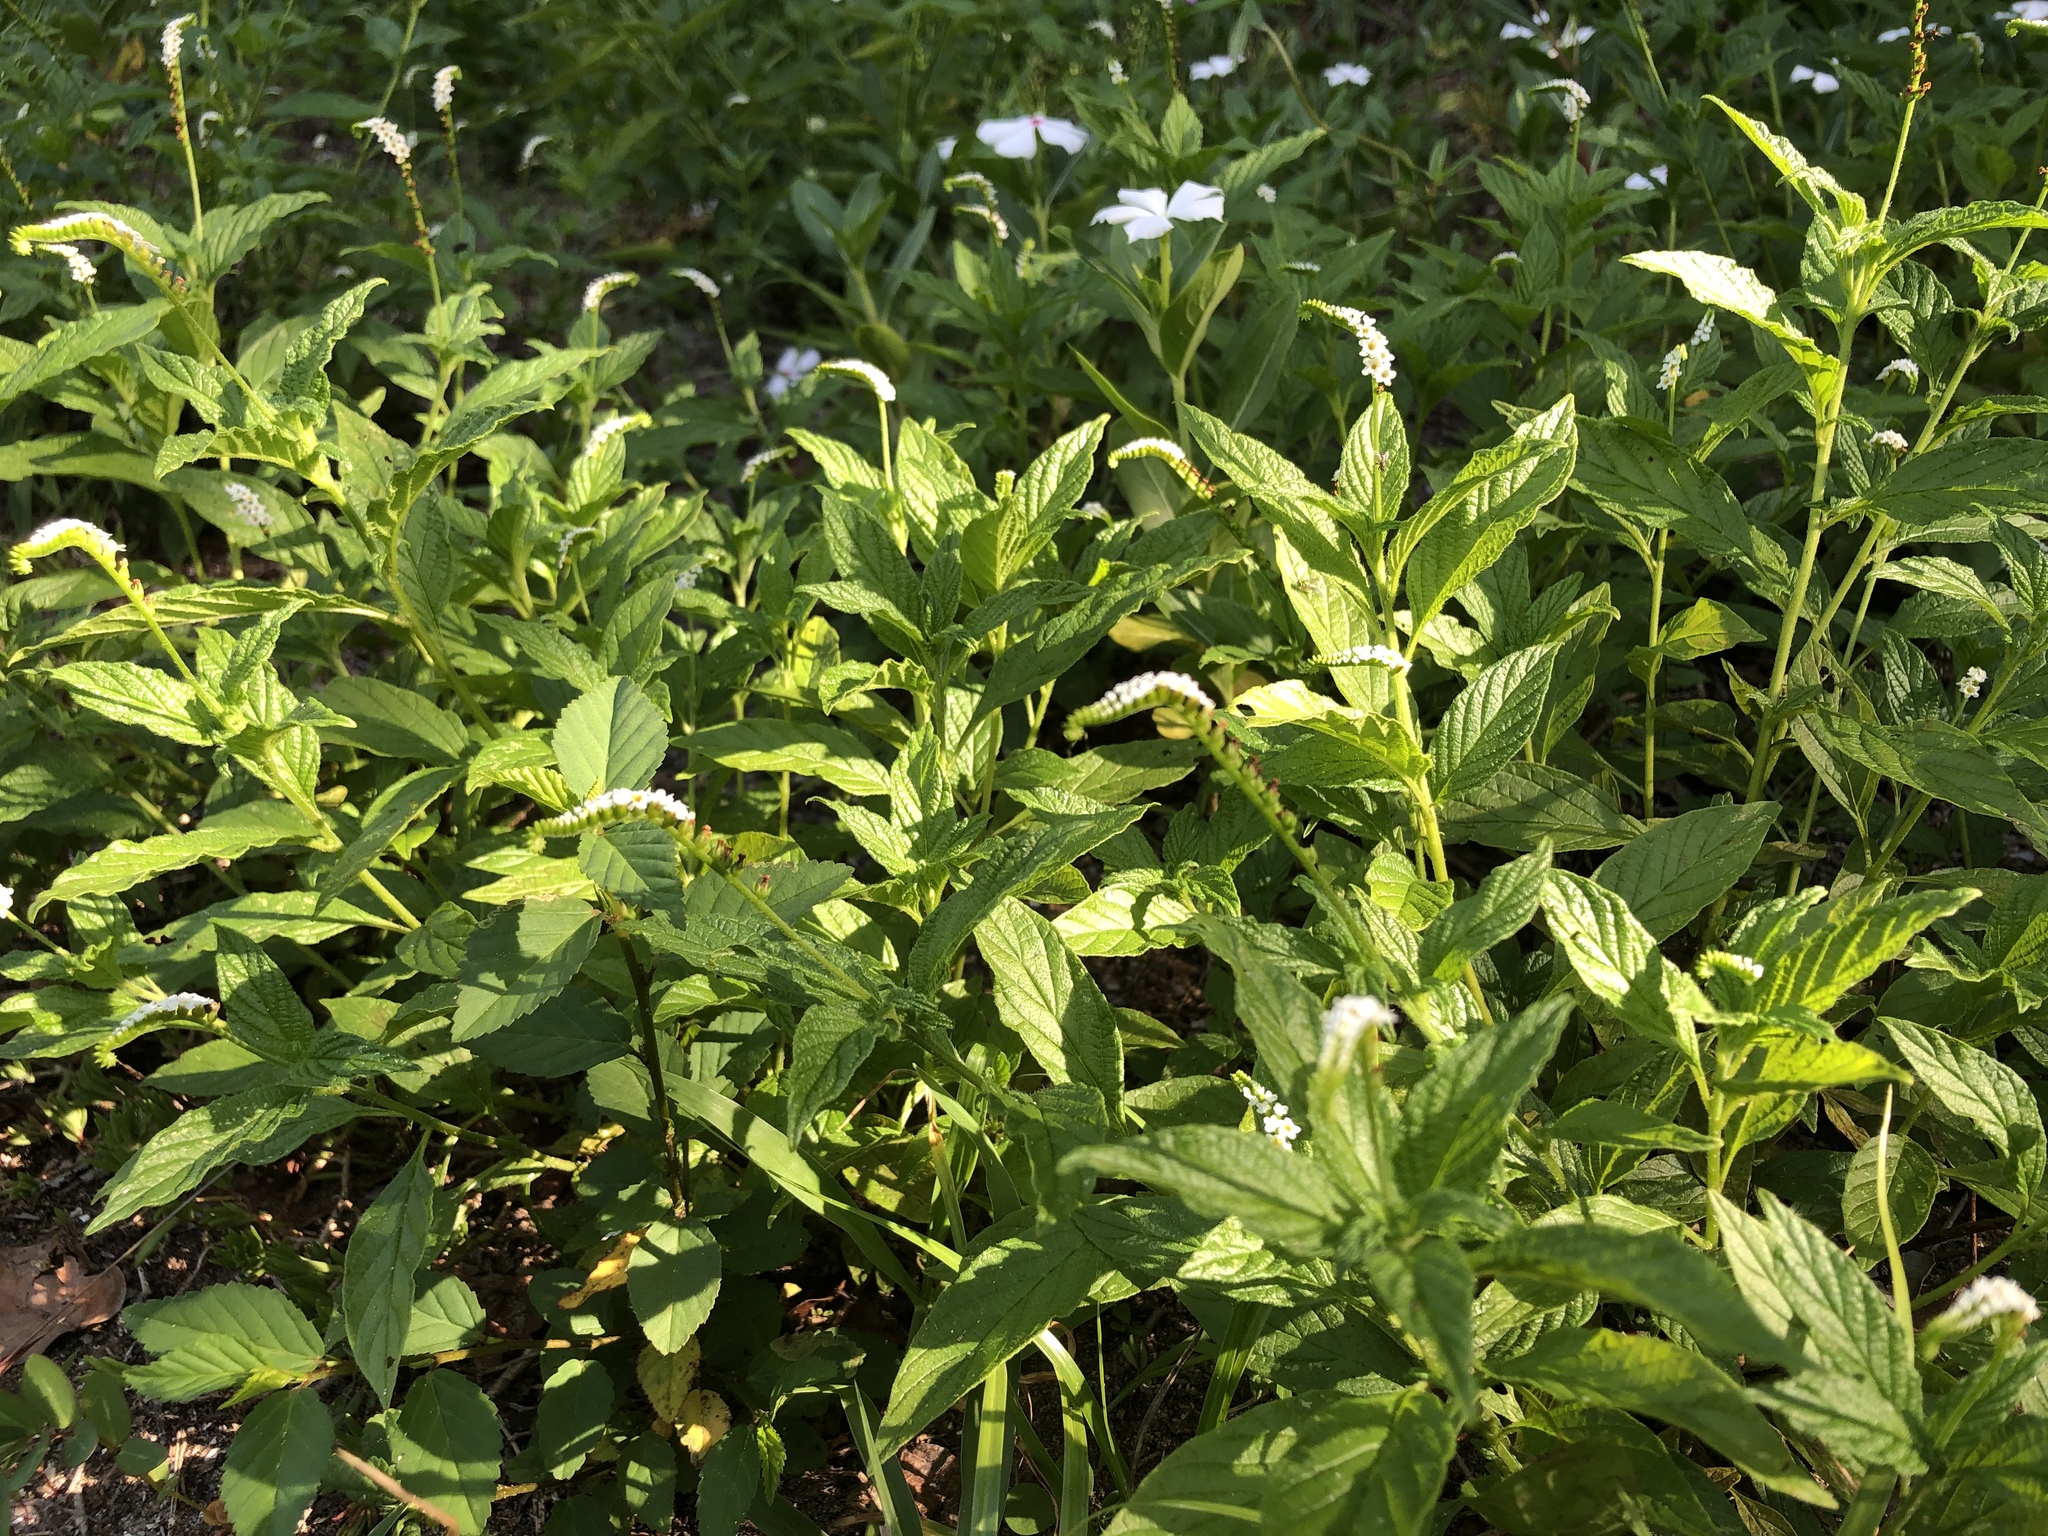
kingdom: Plantae
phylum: Tracheophyta
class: Magnoliopsida
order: Boraginales
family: Heliotropiaceae
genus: Heliotropium
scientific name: Heliotropium angiospermum
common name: Eye bright
